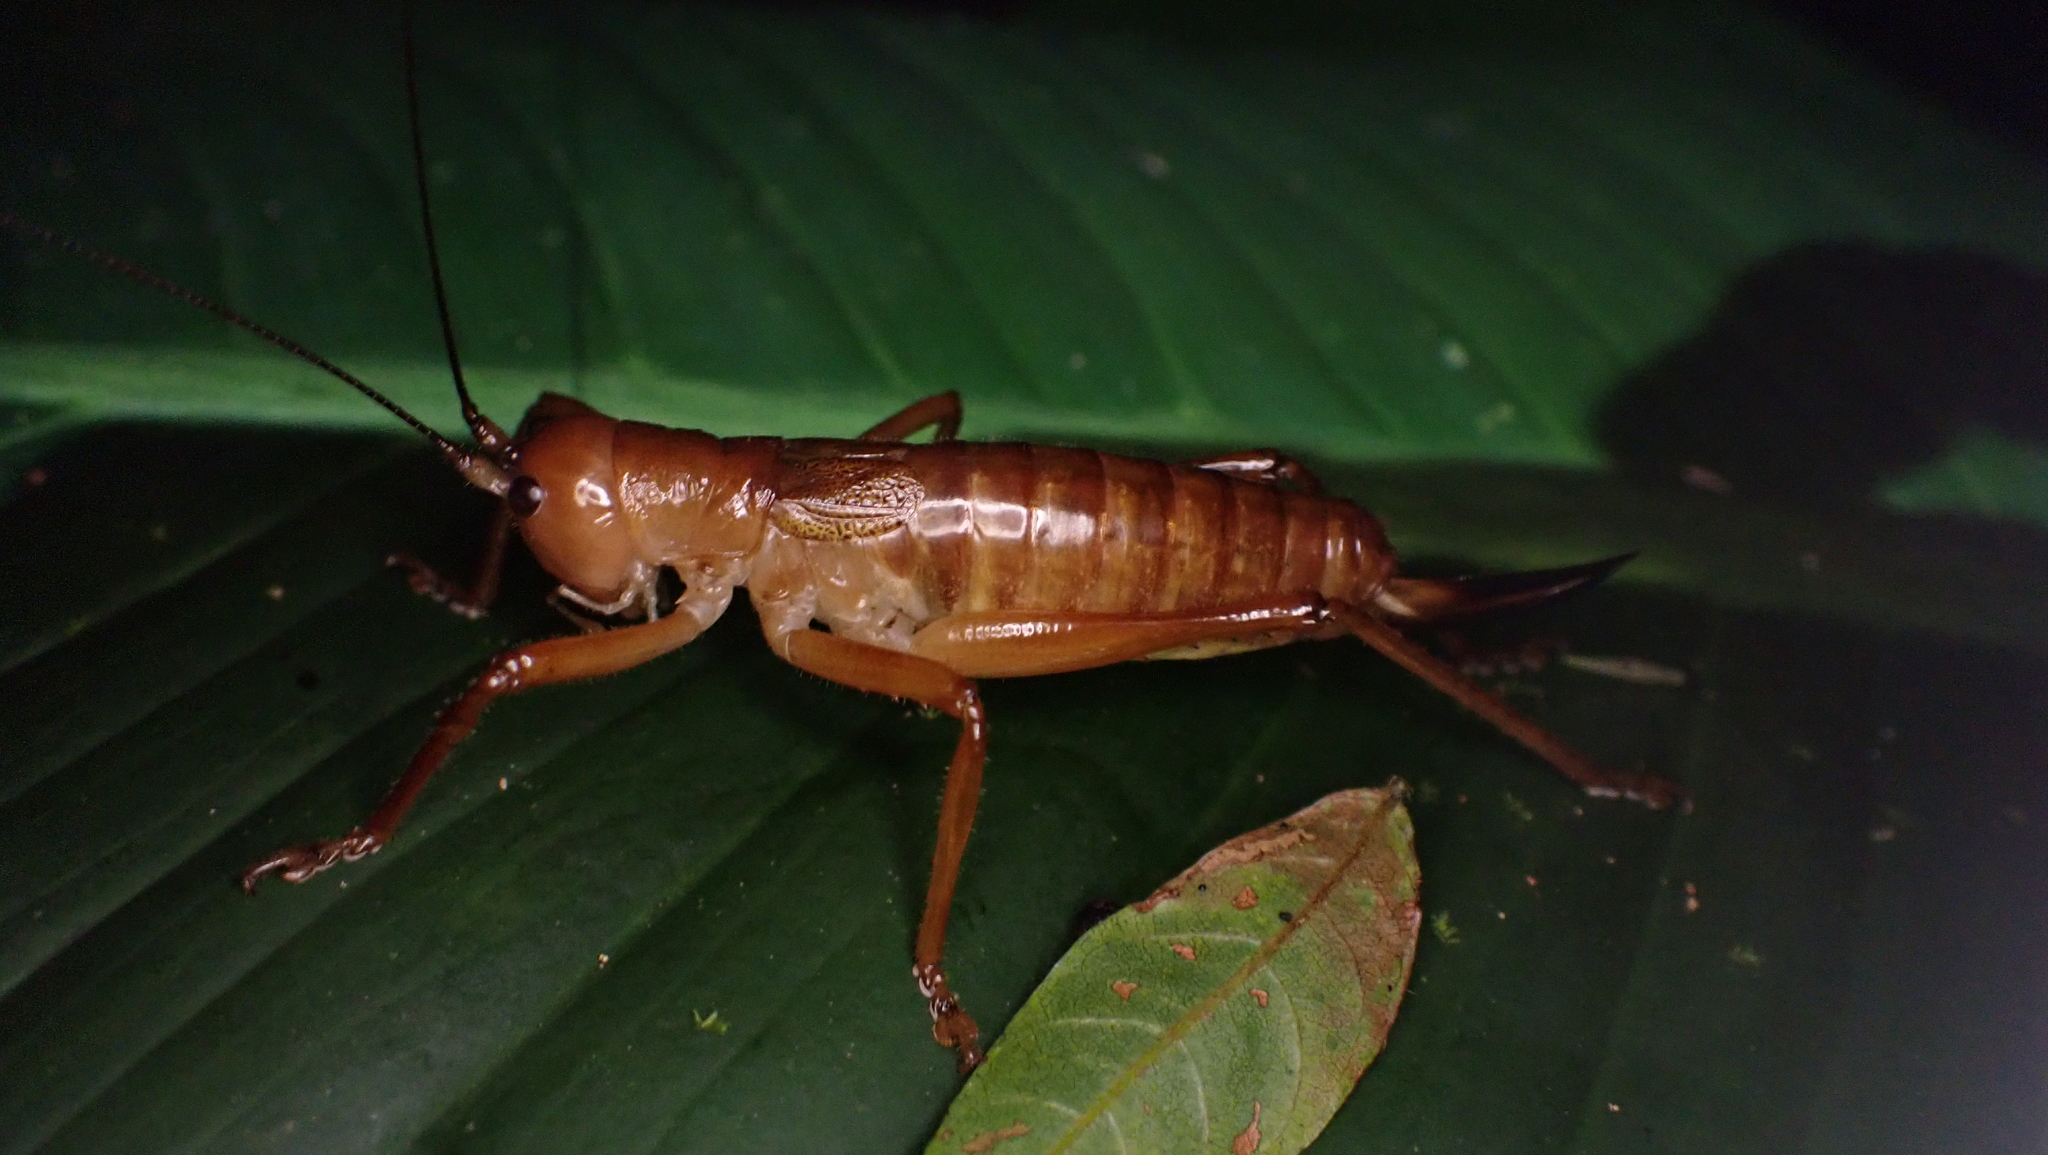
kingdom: Animalia
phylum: Arthropoda
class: Insecta
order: Orthoptera
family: Tettigoniidae
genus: Melanonotus
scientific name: Melanonotus powellorum
